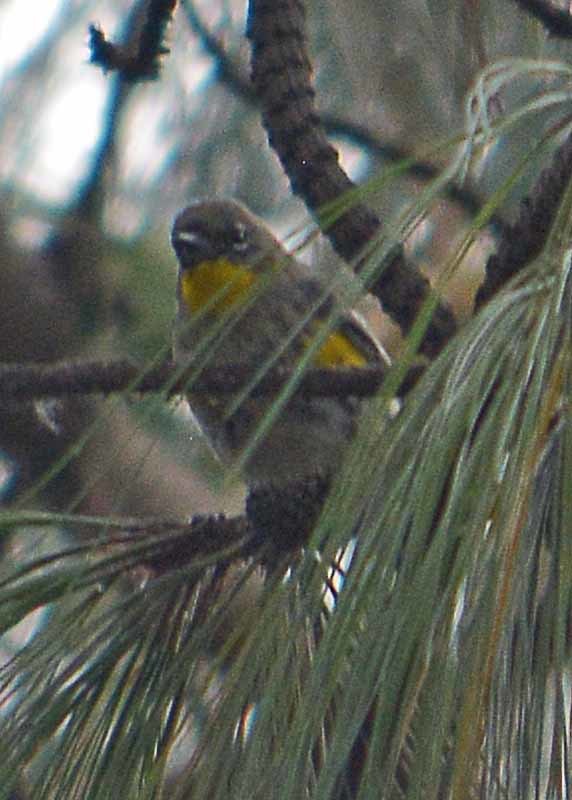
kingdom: Animalia
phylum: Chordata
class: Aves
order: Passeriformes
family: Parulidae
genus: Setophaga
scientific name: Setophaga coronata
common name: Myrtle warbler
